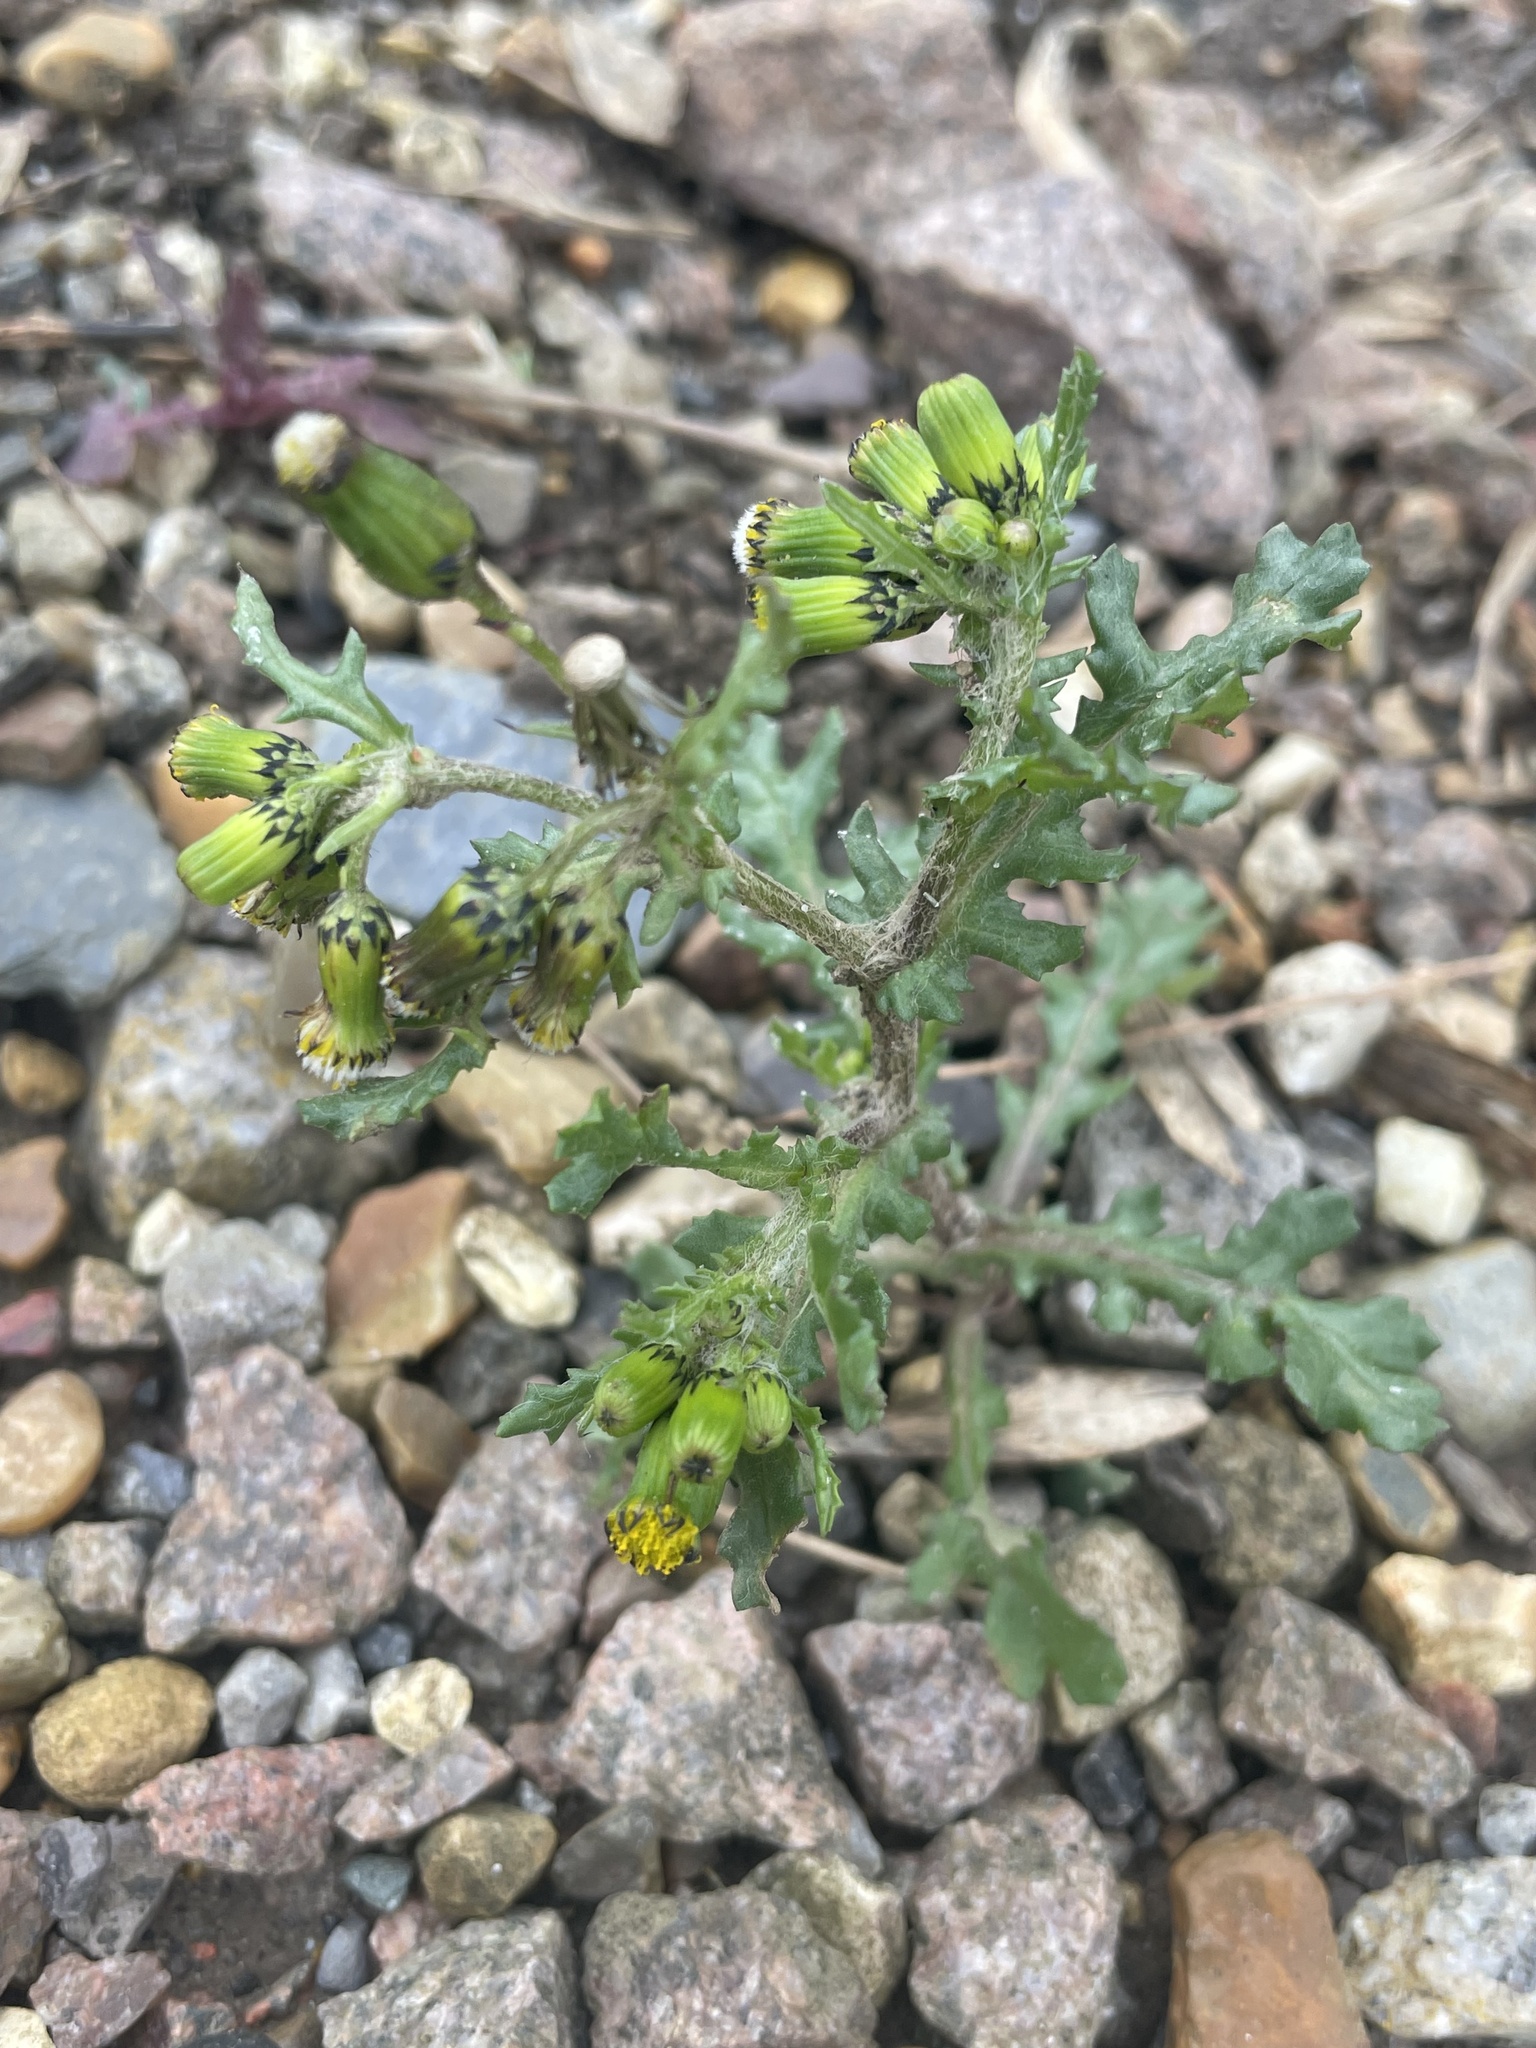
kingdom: Plantae
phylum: Tracheophyta
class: Magnoliopsida
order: Asterales
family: Asteraceae
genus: Senecio
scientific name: Senecio vulgaris
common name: Old-man-in-the-spring
